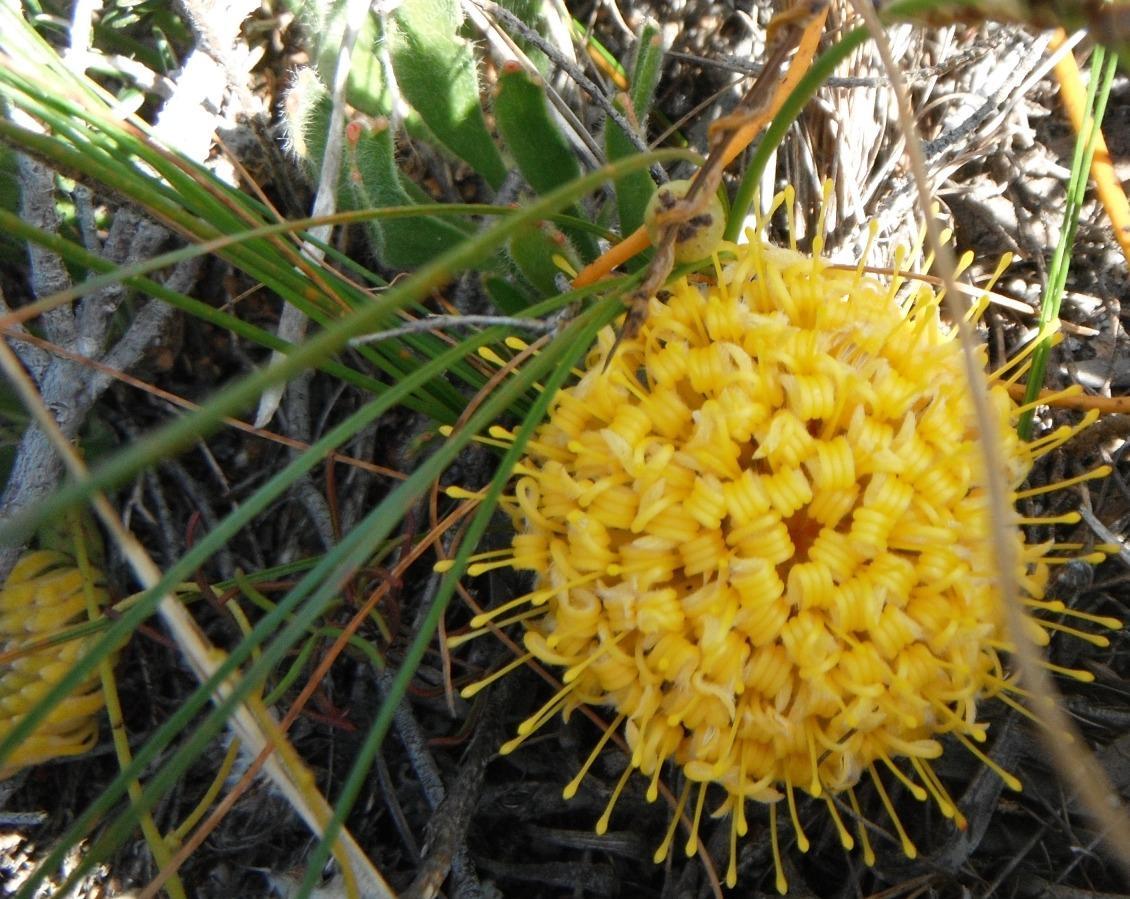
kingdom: Plantae
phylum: Tracheophyta
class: Magnoliopsida
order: Proteales
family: Proteaceae
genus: Leucospermum
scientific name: Leucospermum hypophyllocarpodendron
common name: Snakestem pincushion
